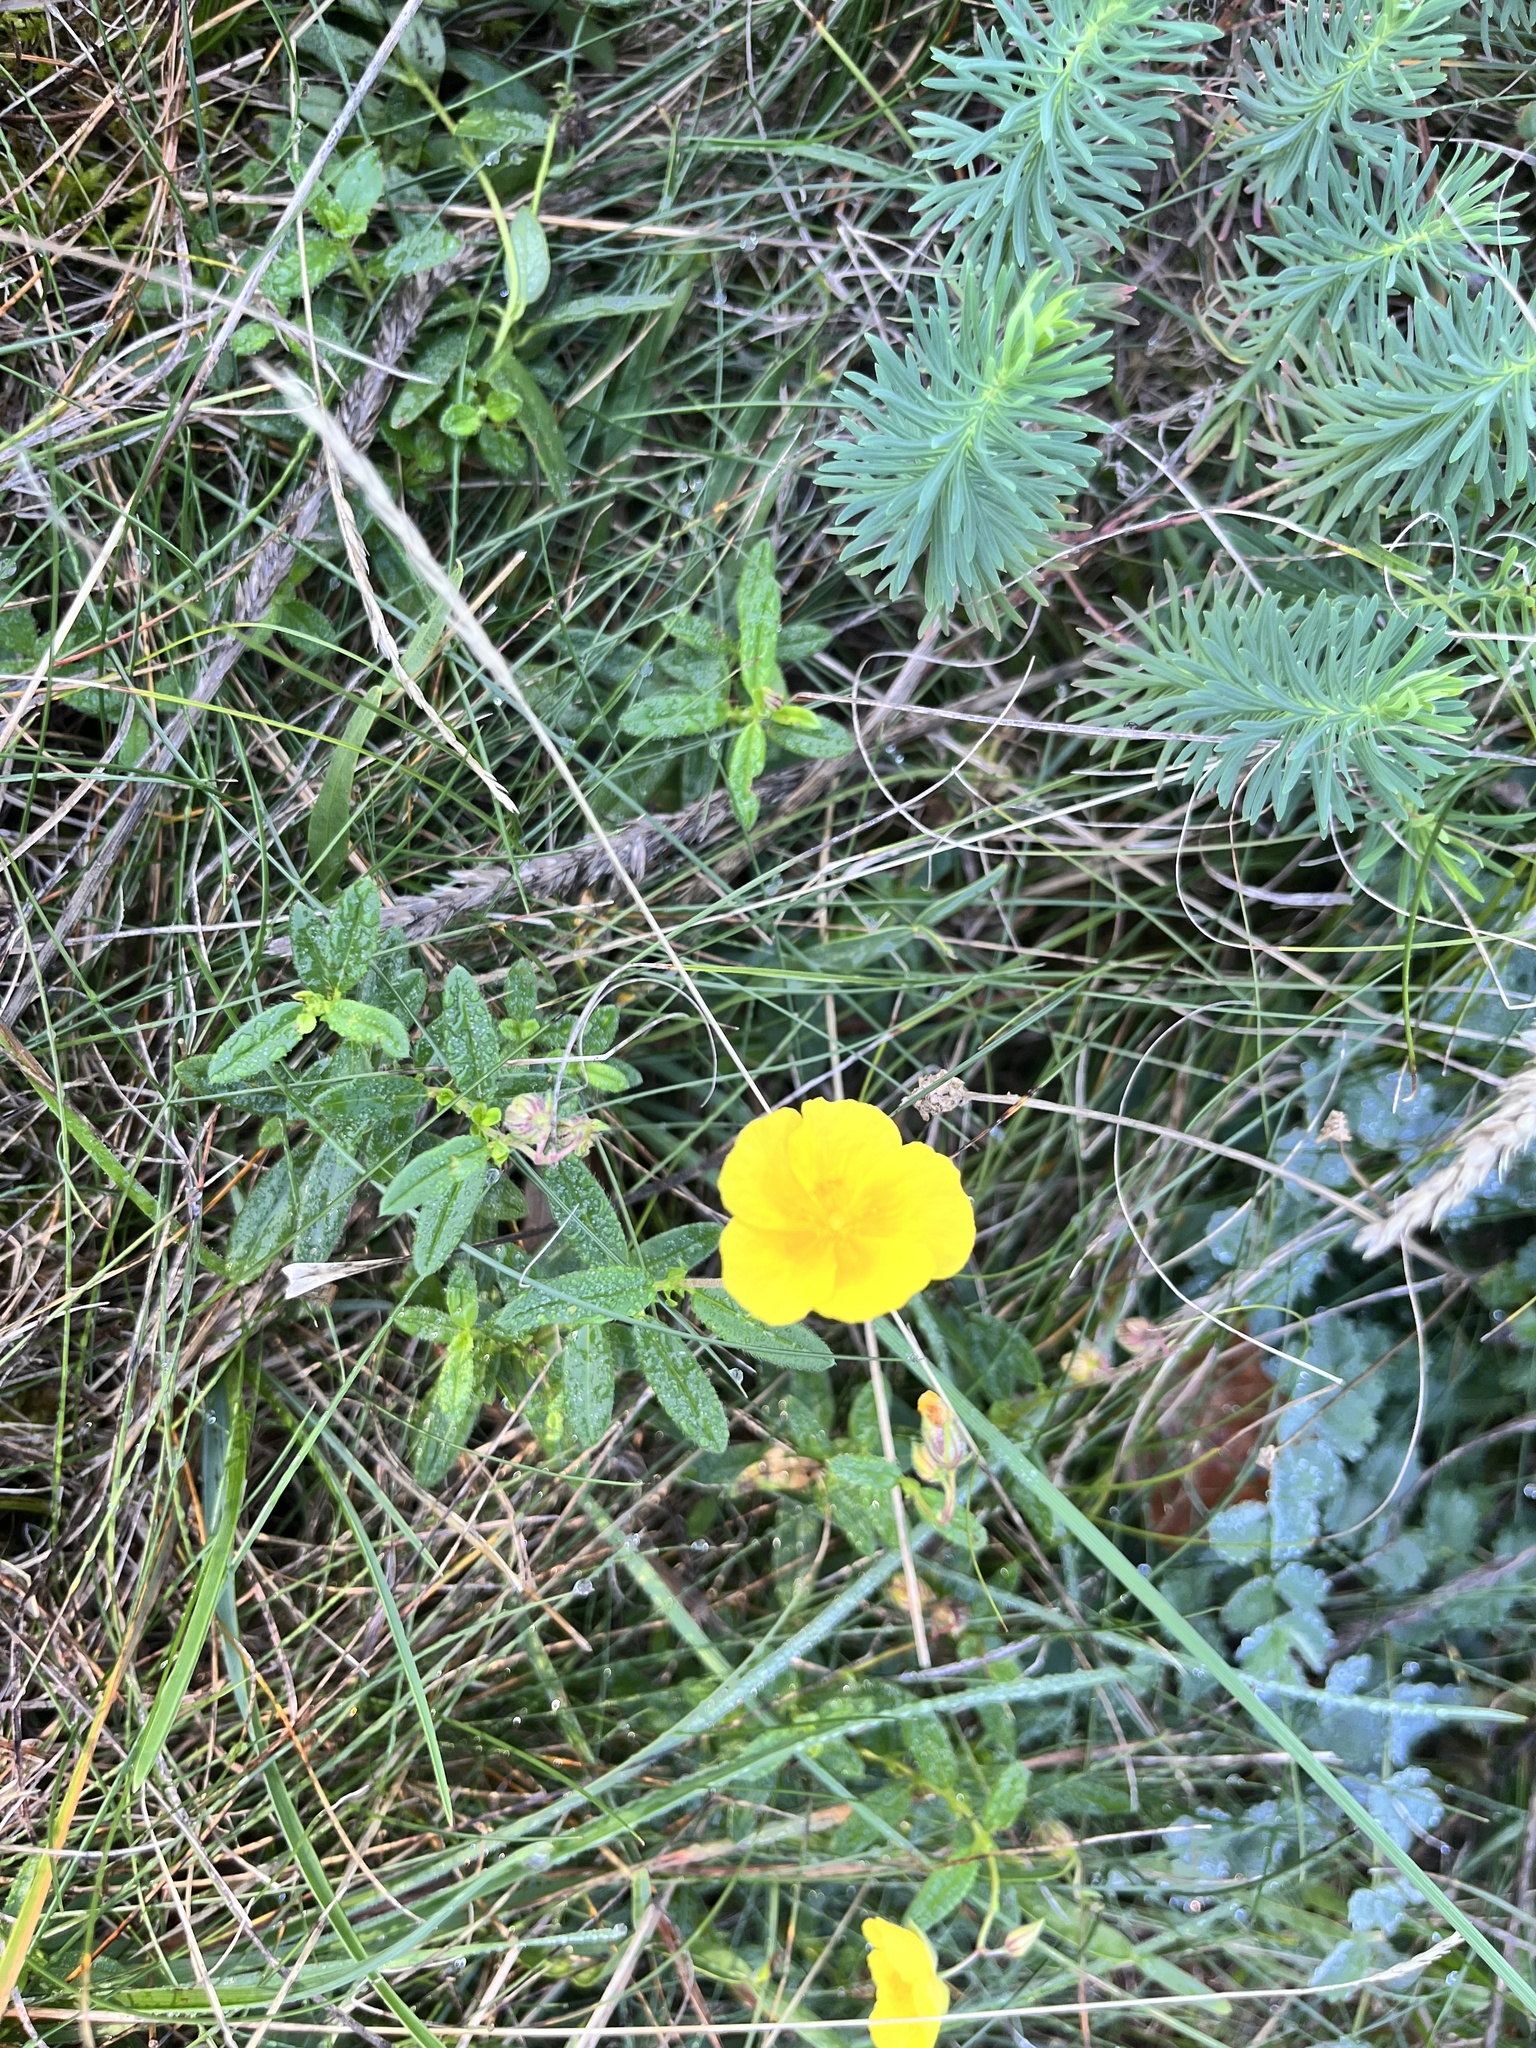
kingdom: Plantae
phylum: Tracheophyta
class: Magnoliopsida
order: Malvales
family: Cistaceae
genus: Helianthemum
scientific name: Helianthemum nummularium
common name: Common rock-rose
